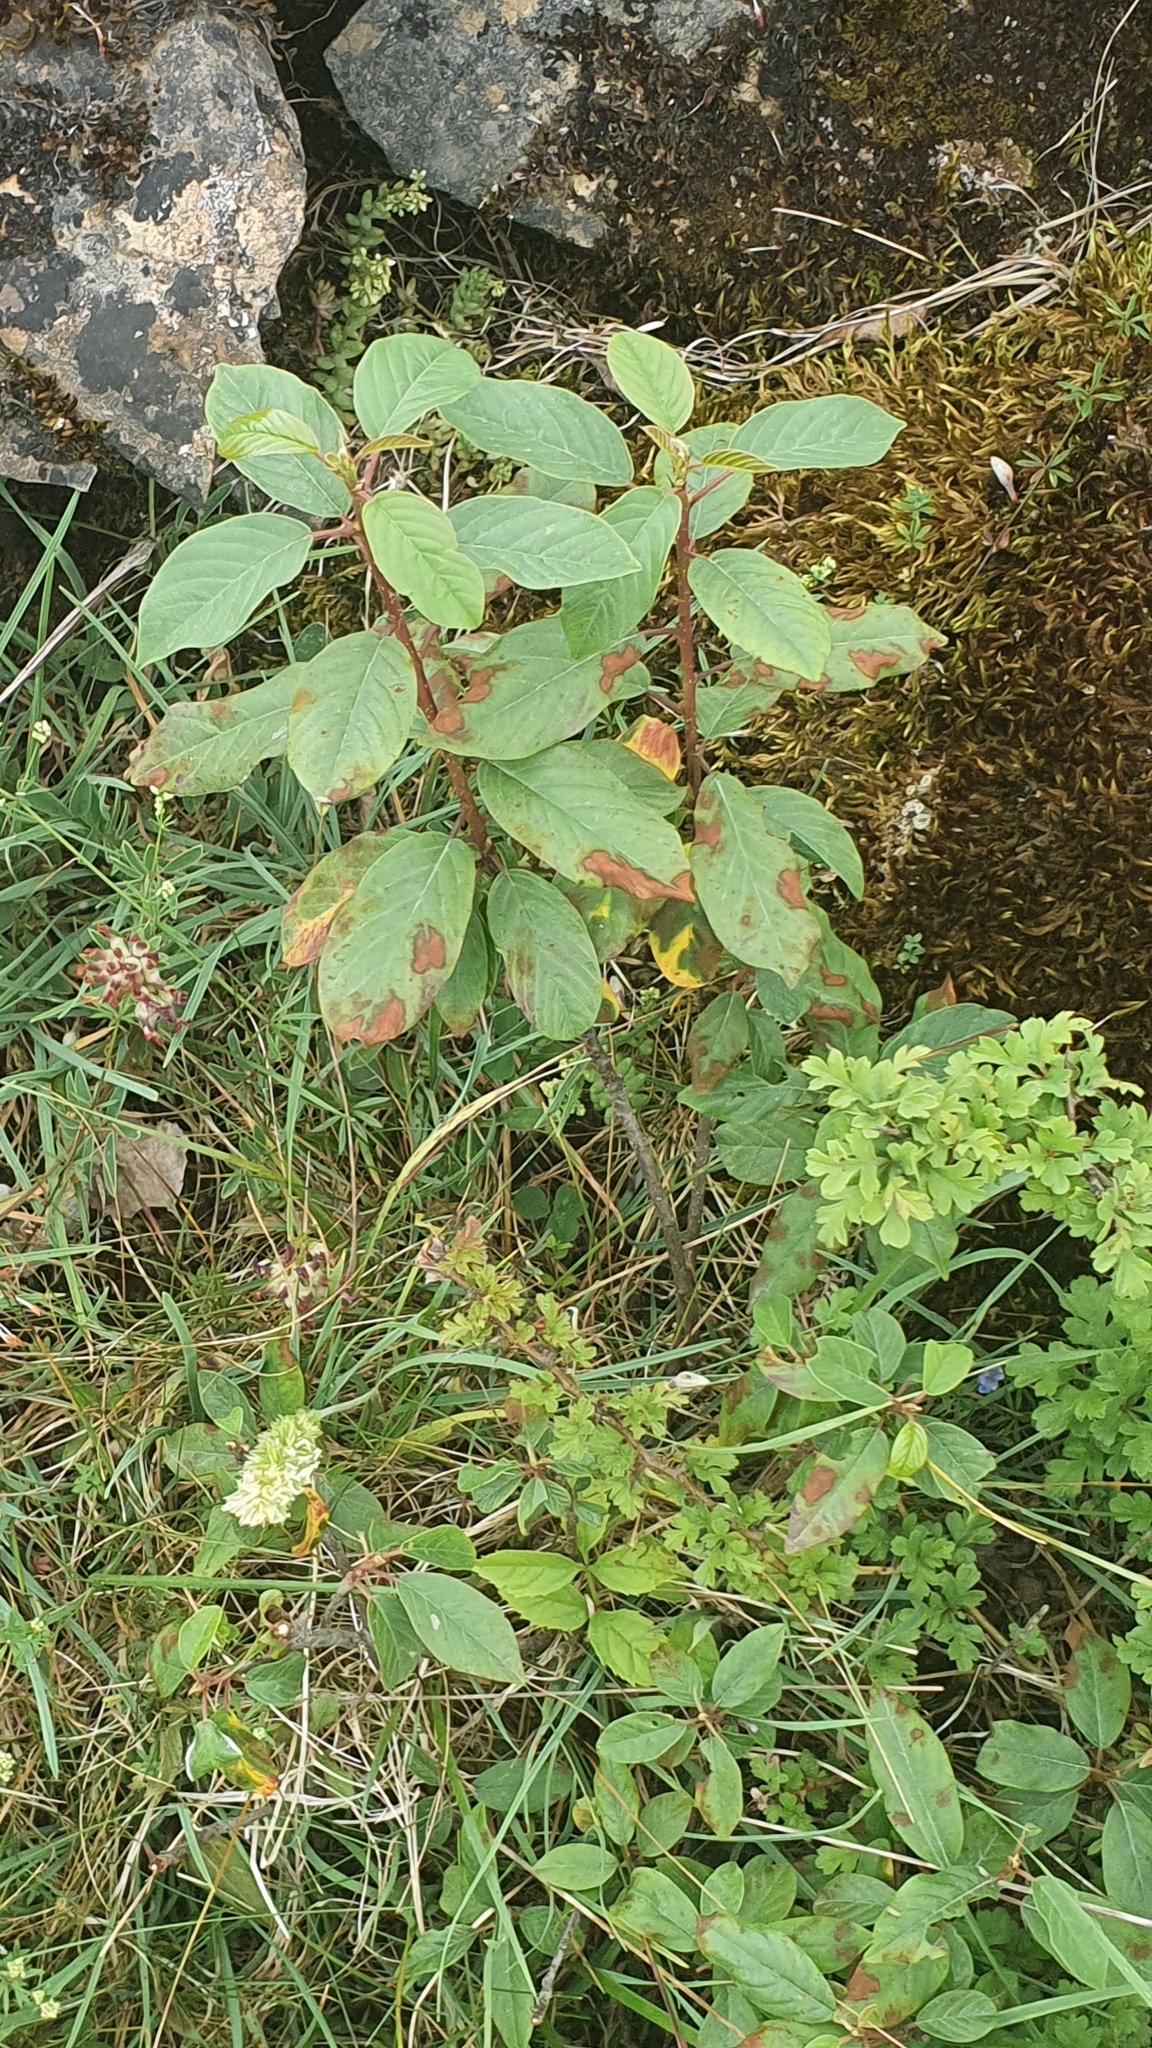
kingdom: Plantae
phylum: Tracheophyta
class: Magnoliopsida
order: Rosales
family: Rhamnaceae
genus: Frangula
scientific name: Frangula alnus
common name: Alder buckthorn
